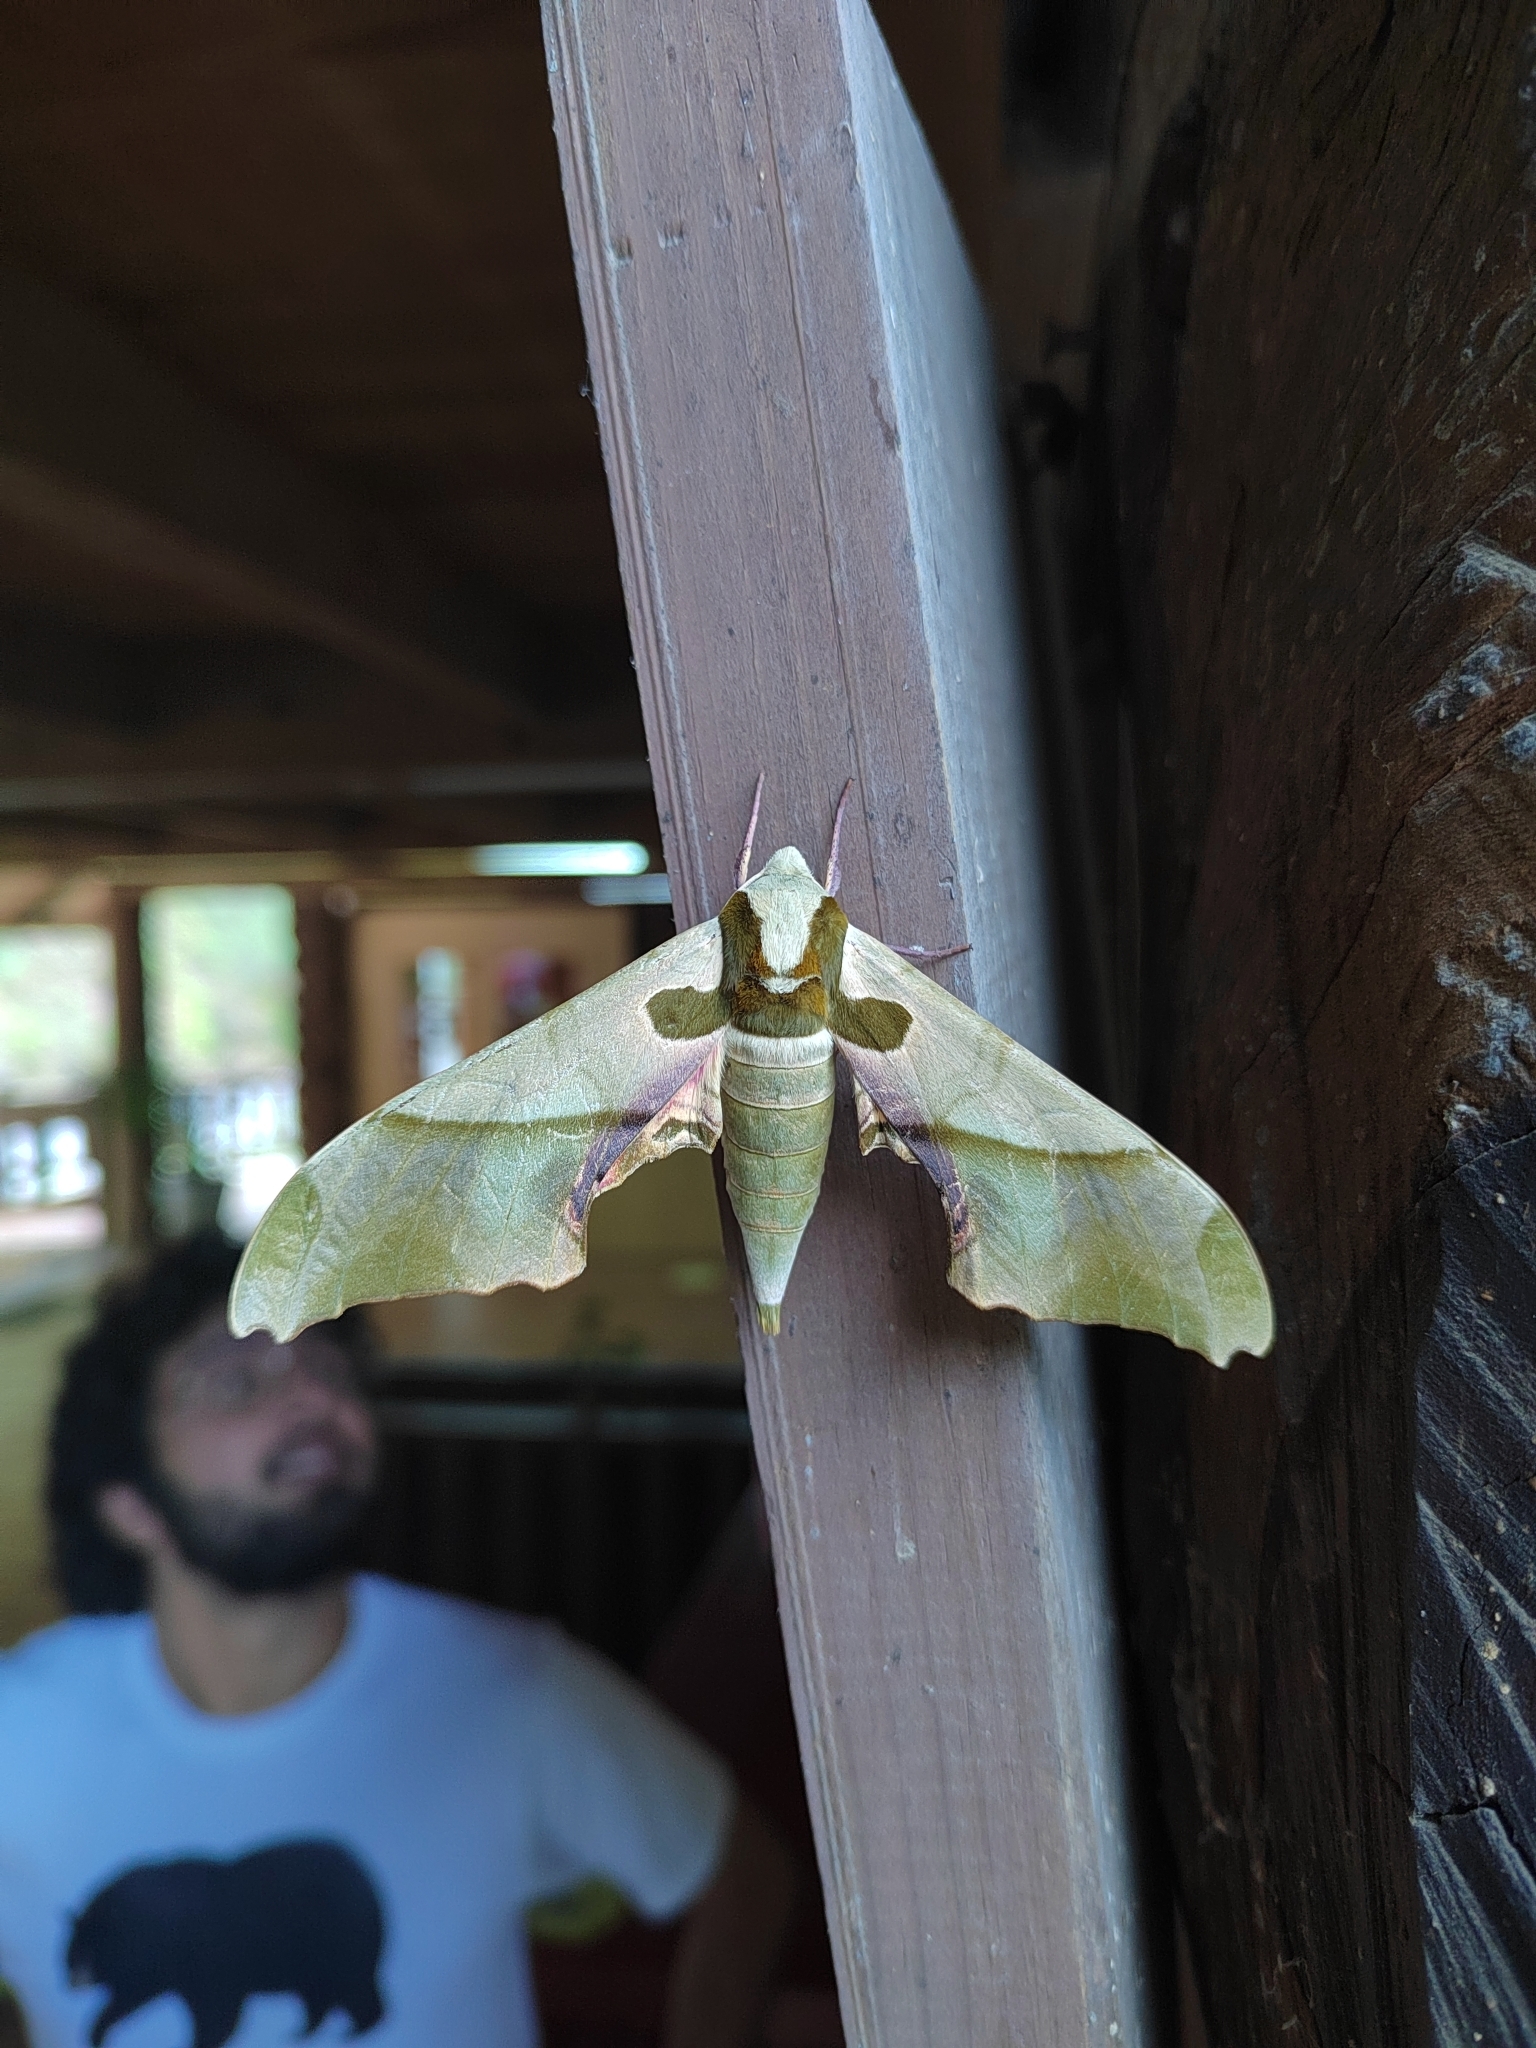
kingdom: Animalia
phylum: Arthropoda
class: Insecta
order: Lepidoptera
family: Sphingidae
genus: Adhemarius
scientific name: Adhemarius dariensis
